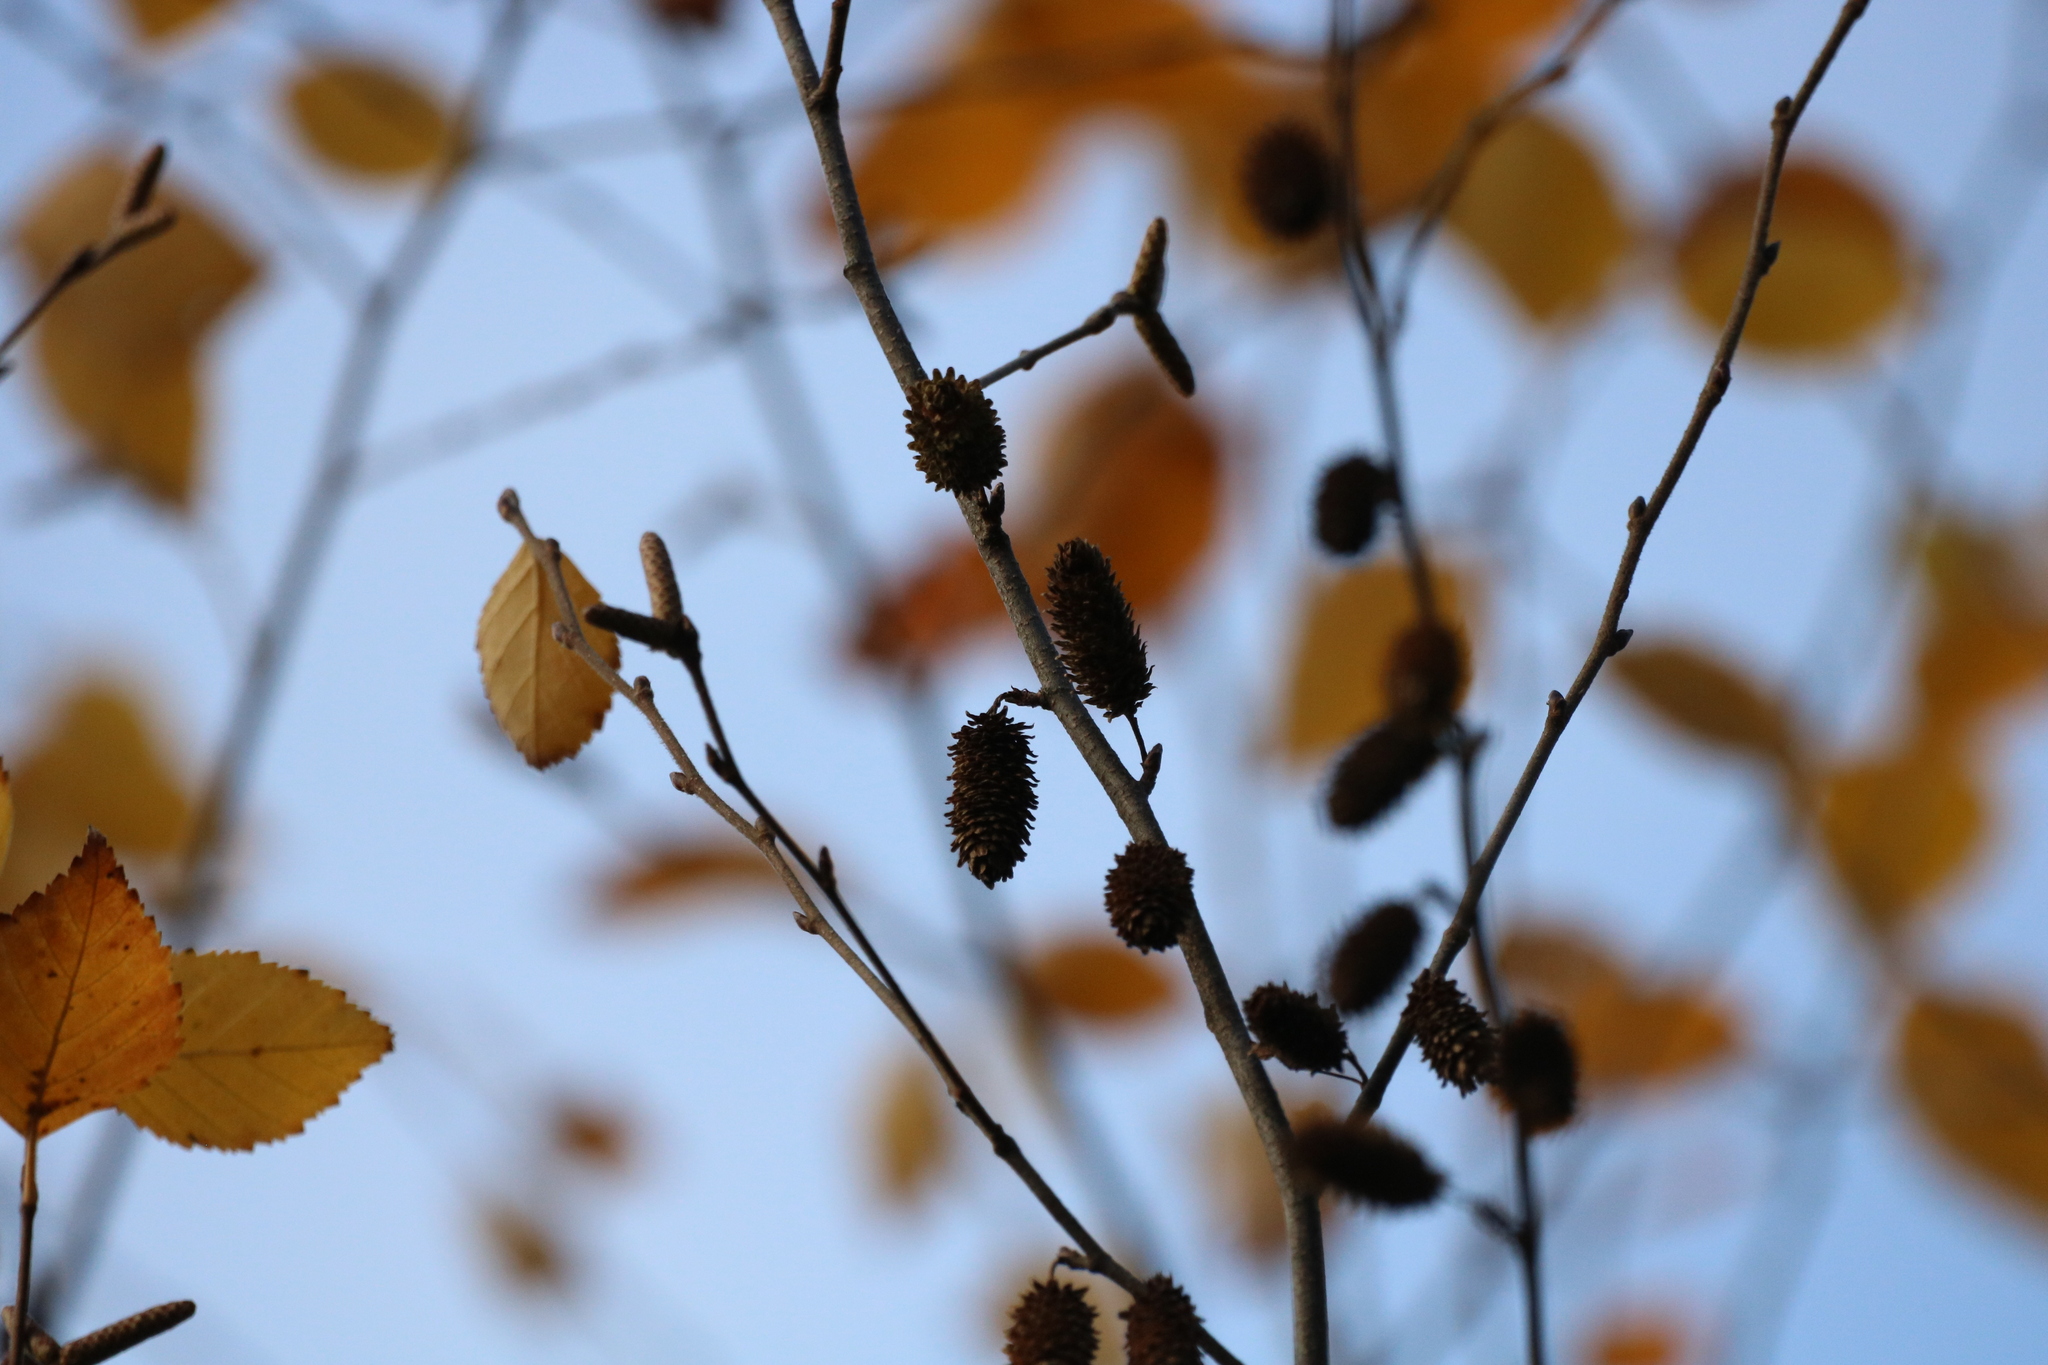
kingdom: Plantae
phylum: Tracheophyta
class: Magnoliopsida
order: Fagales
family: Betulaceae
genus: Alnus
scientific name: Alnus incana
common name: Grey alder
